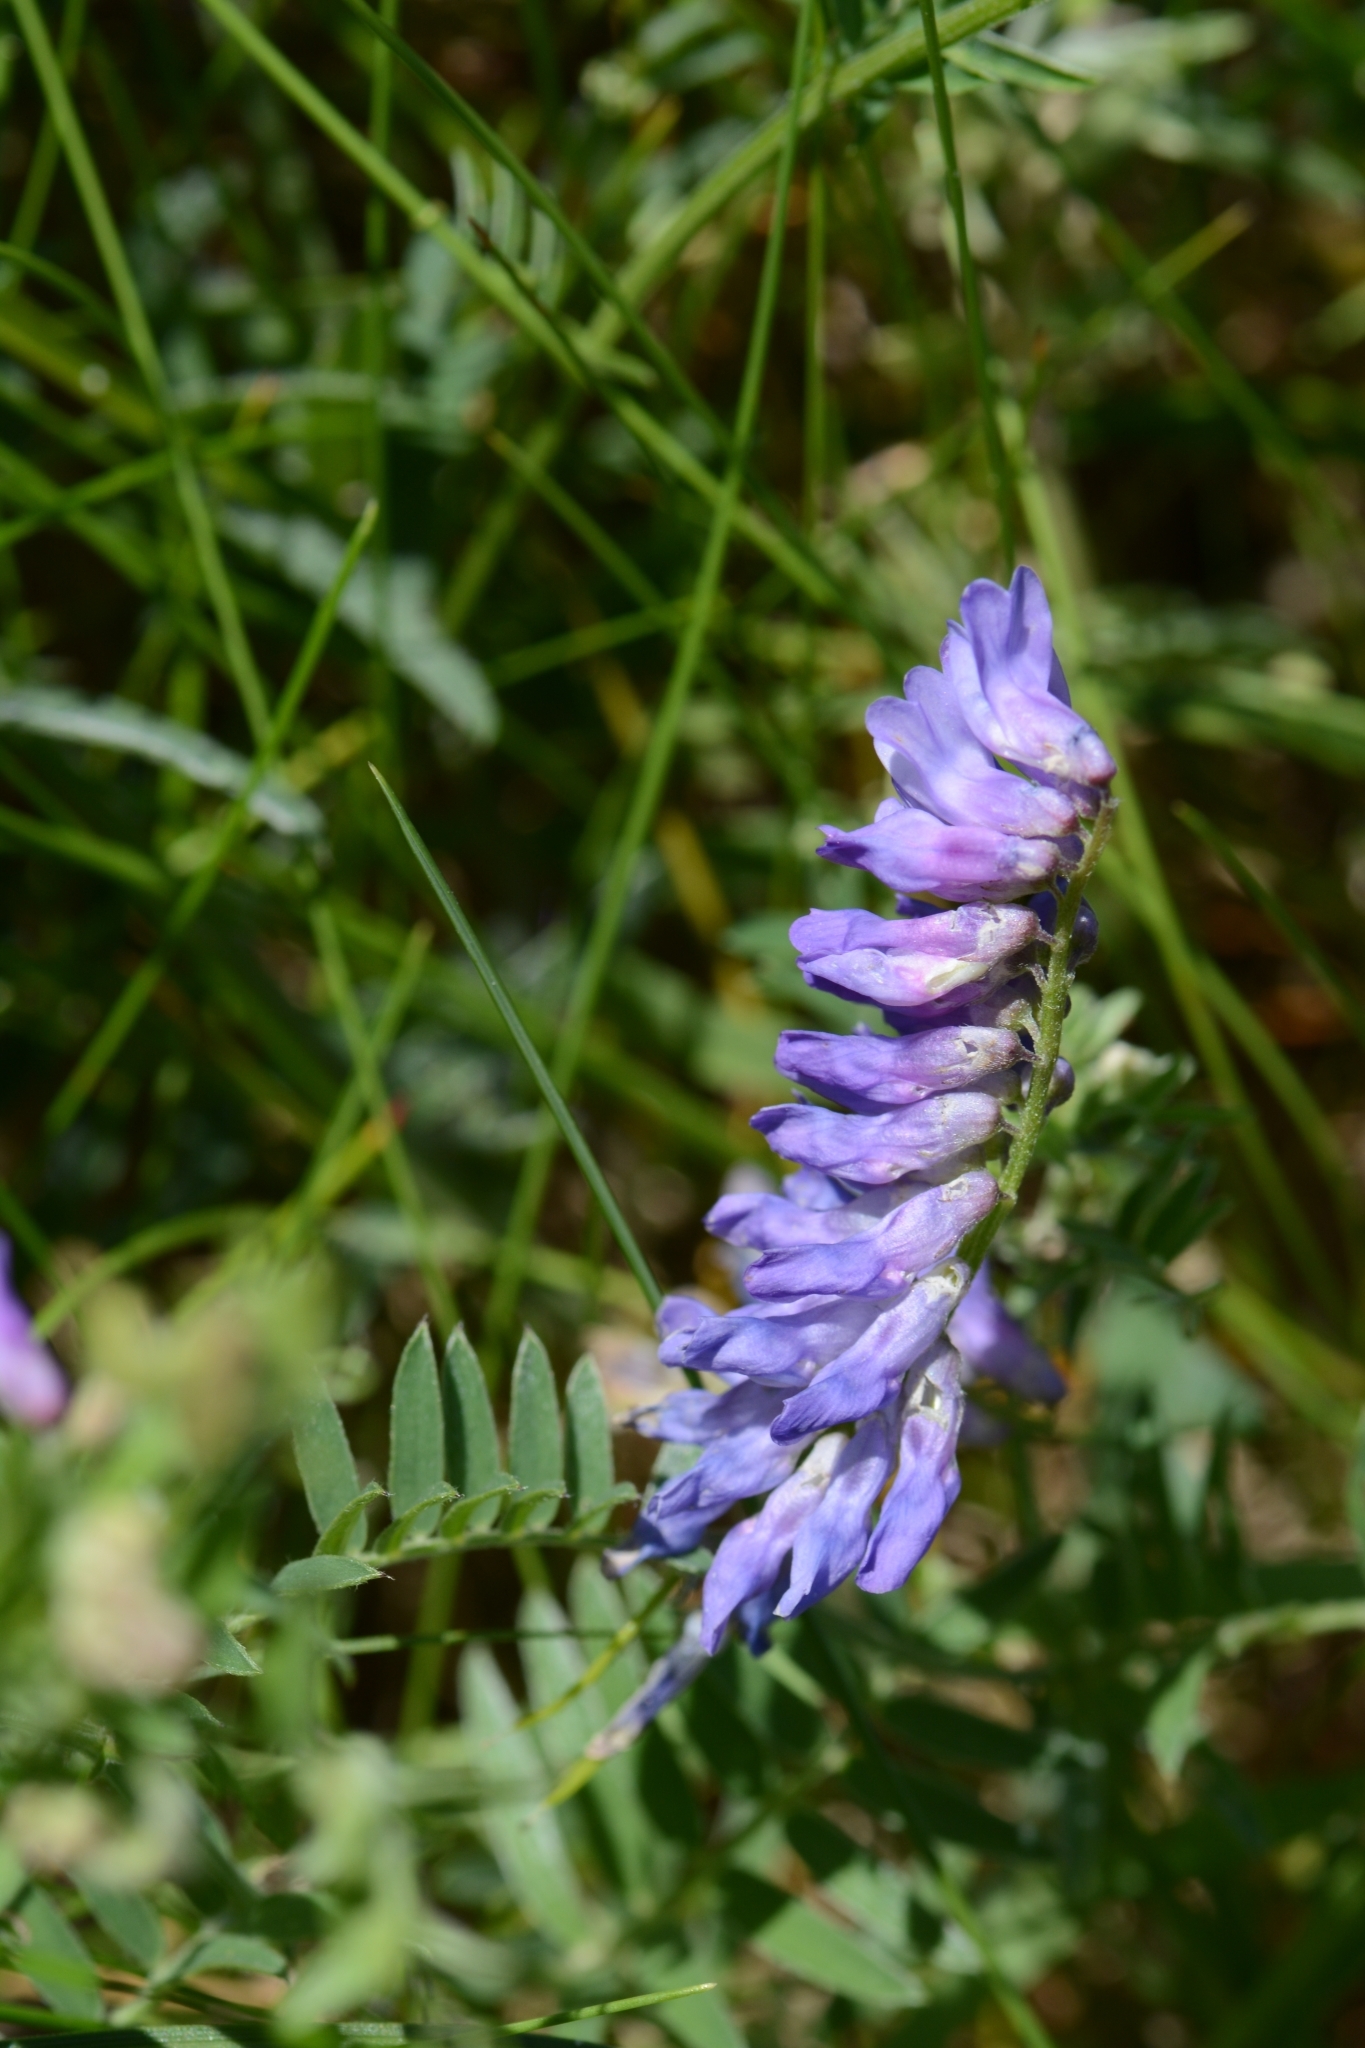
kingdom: Plantae
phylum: Tracheophyta
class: Magnoliopsida
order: Fabales
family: Fabaceae
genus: Vicia
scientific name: Vicia cracca
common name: Bird vetch
